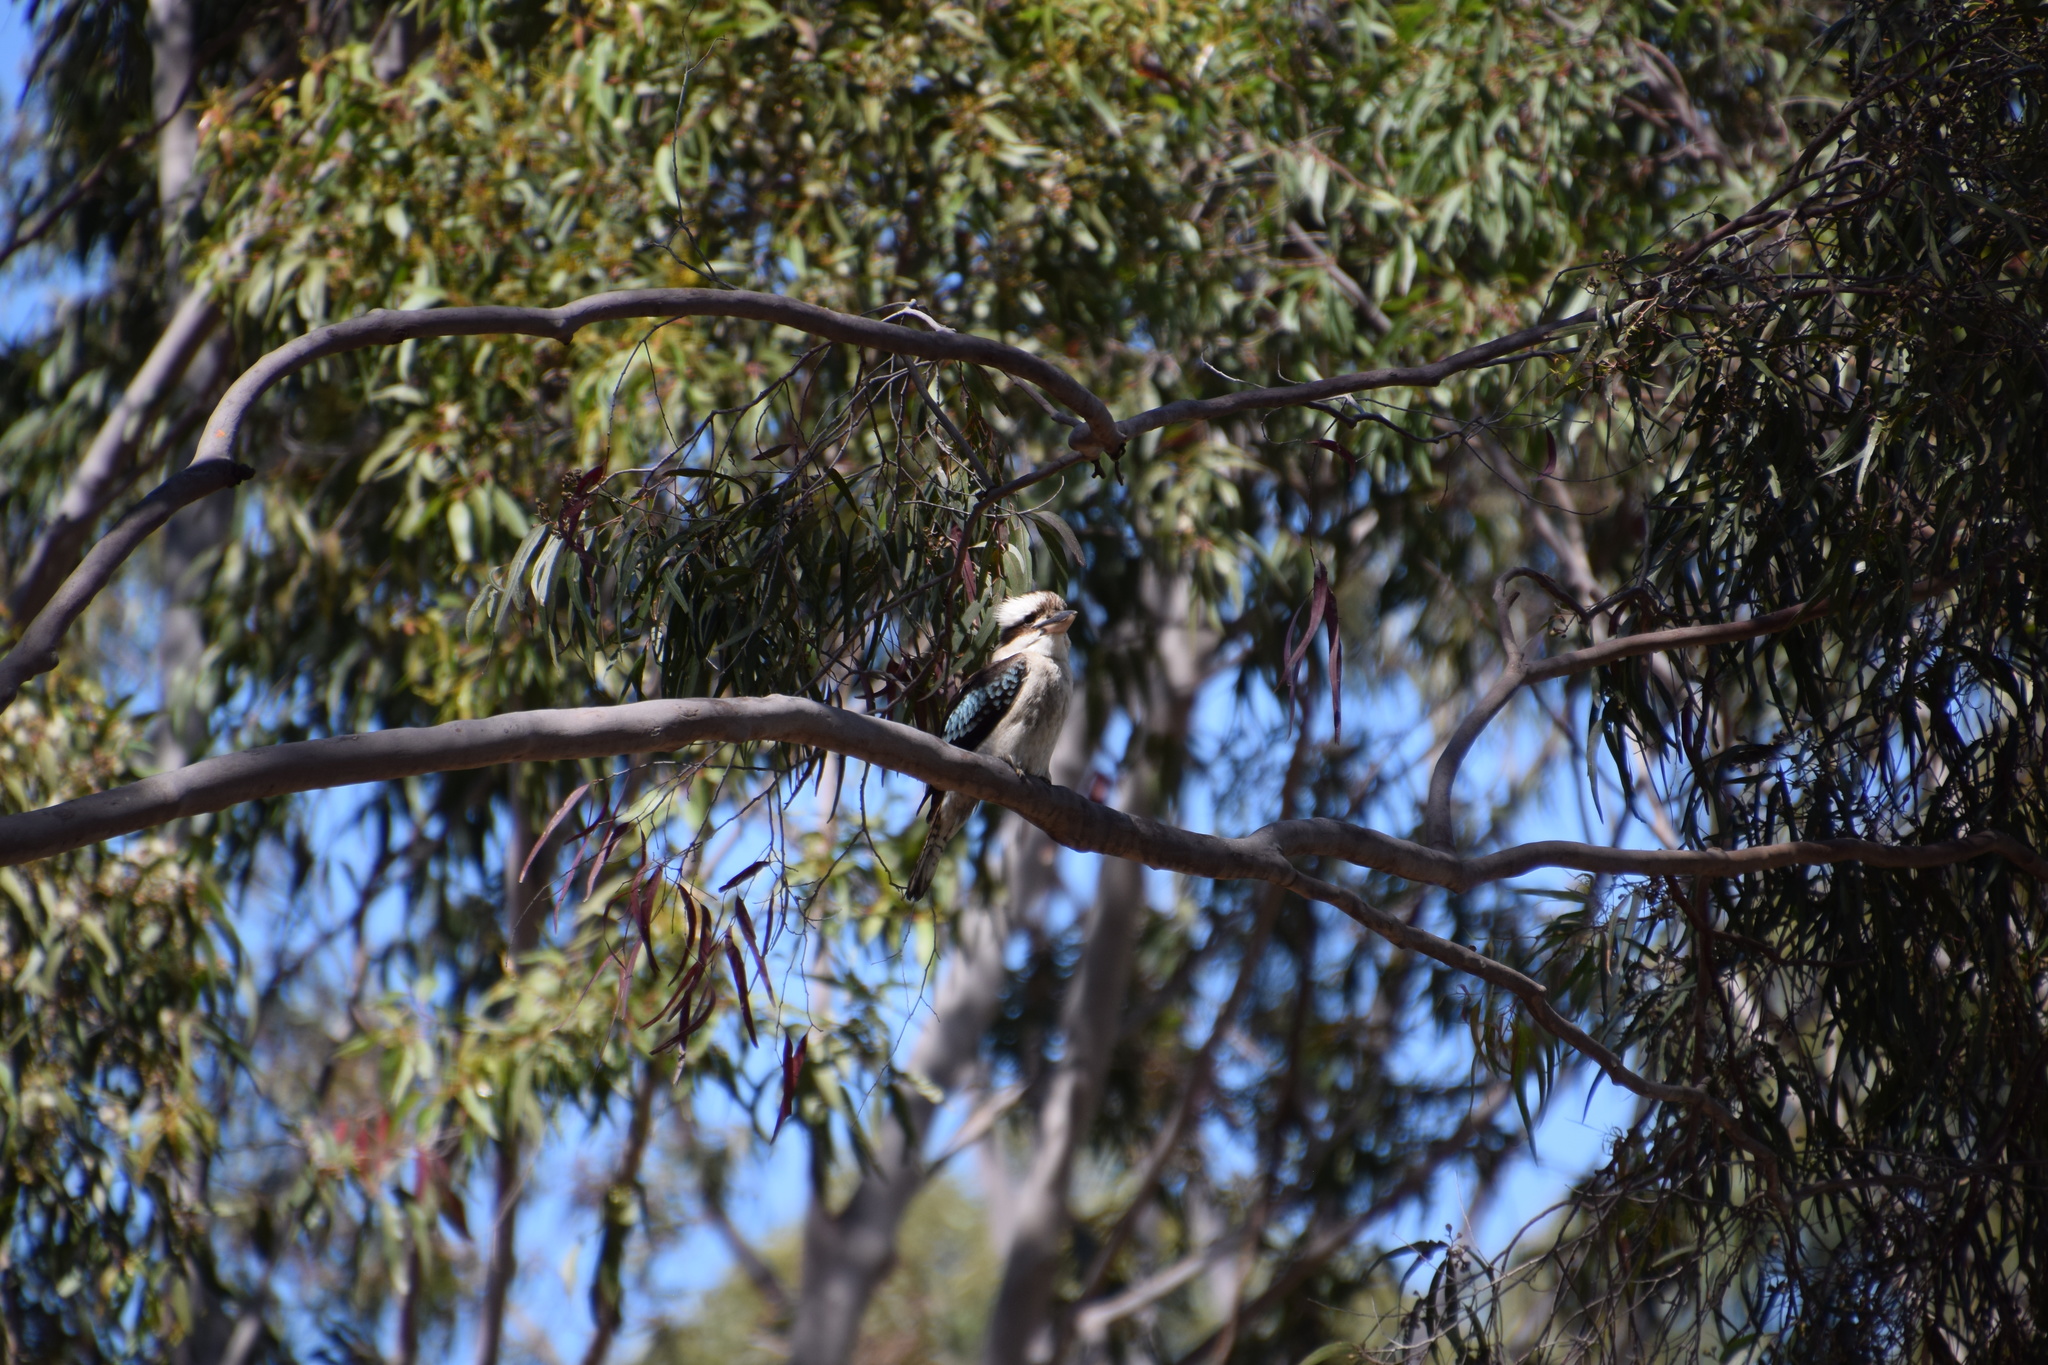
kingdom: Animalia
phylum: Chordata
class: Aves
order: Coraciiformes
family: Alcedinidae
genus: Dacelo
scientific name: Dacelo novaeguineae
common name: Laughing kookaburra
